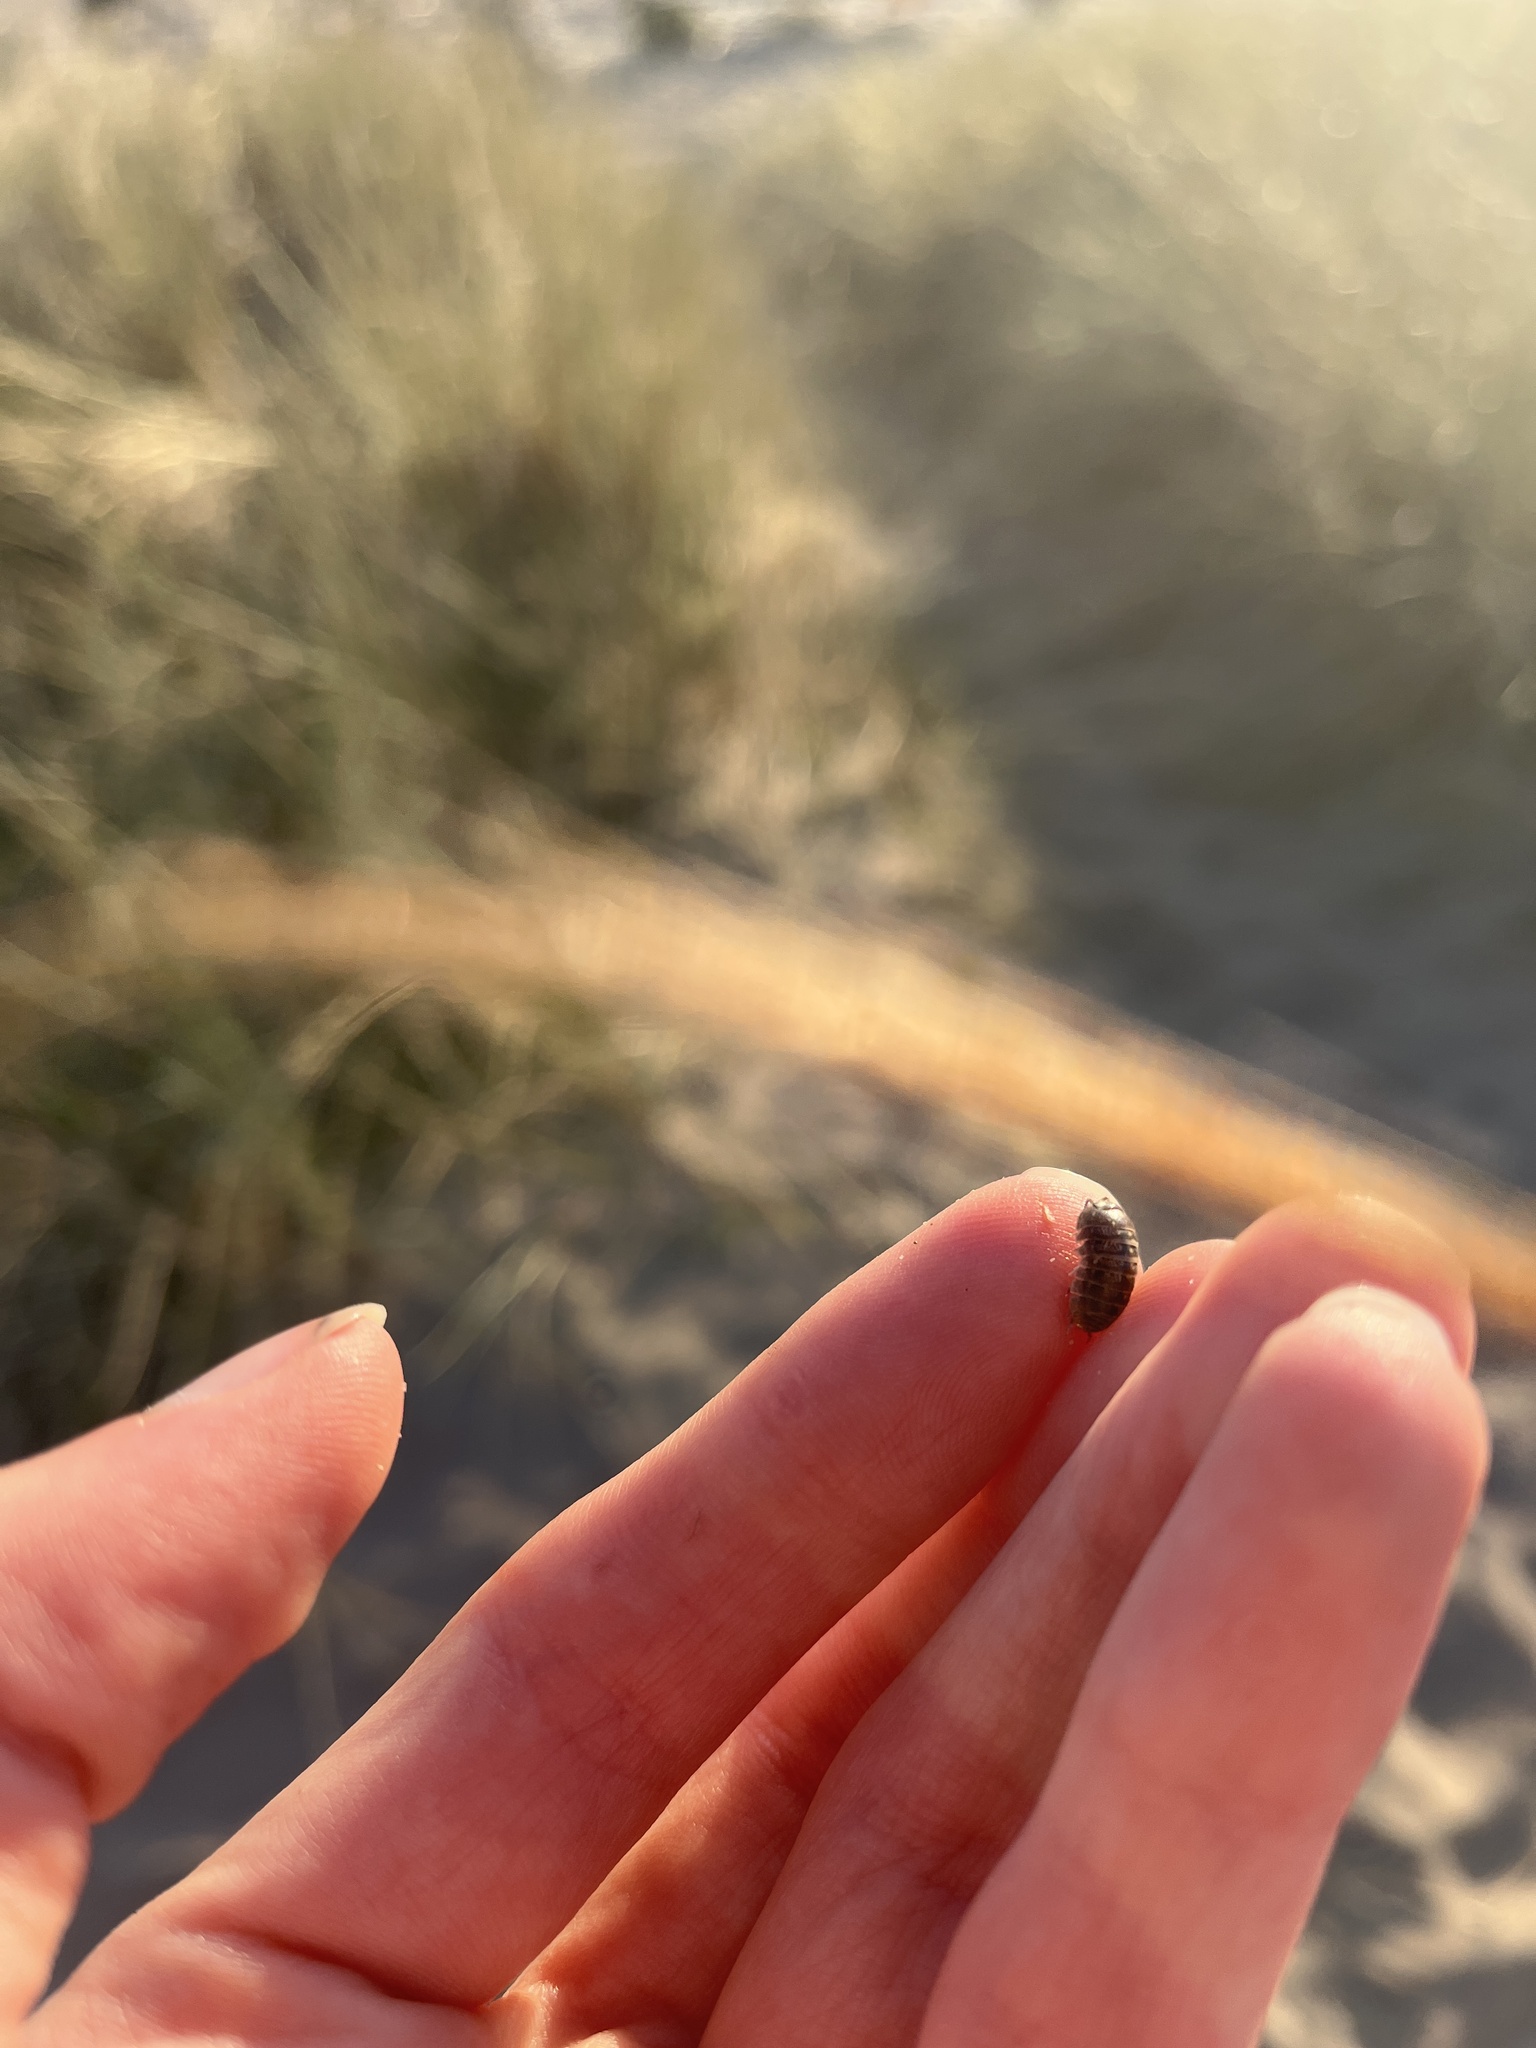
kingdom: Animalia
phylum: Arthropoda
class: Malacostraca
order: Isopoda
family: Armadillidiidae
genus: Armadillidium
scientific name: Armadillidium vulgare
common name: Common pill woodlouse
